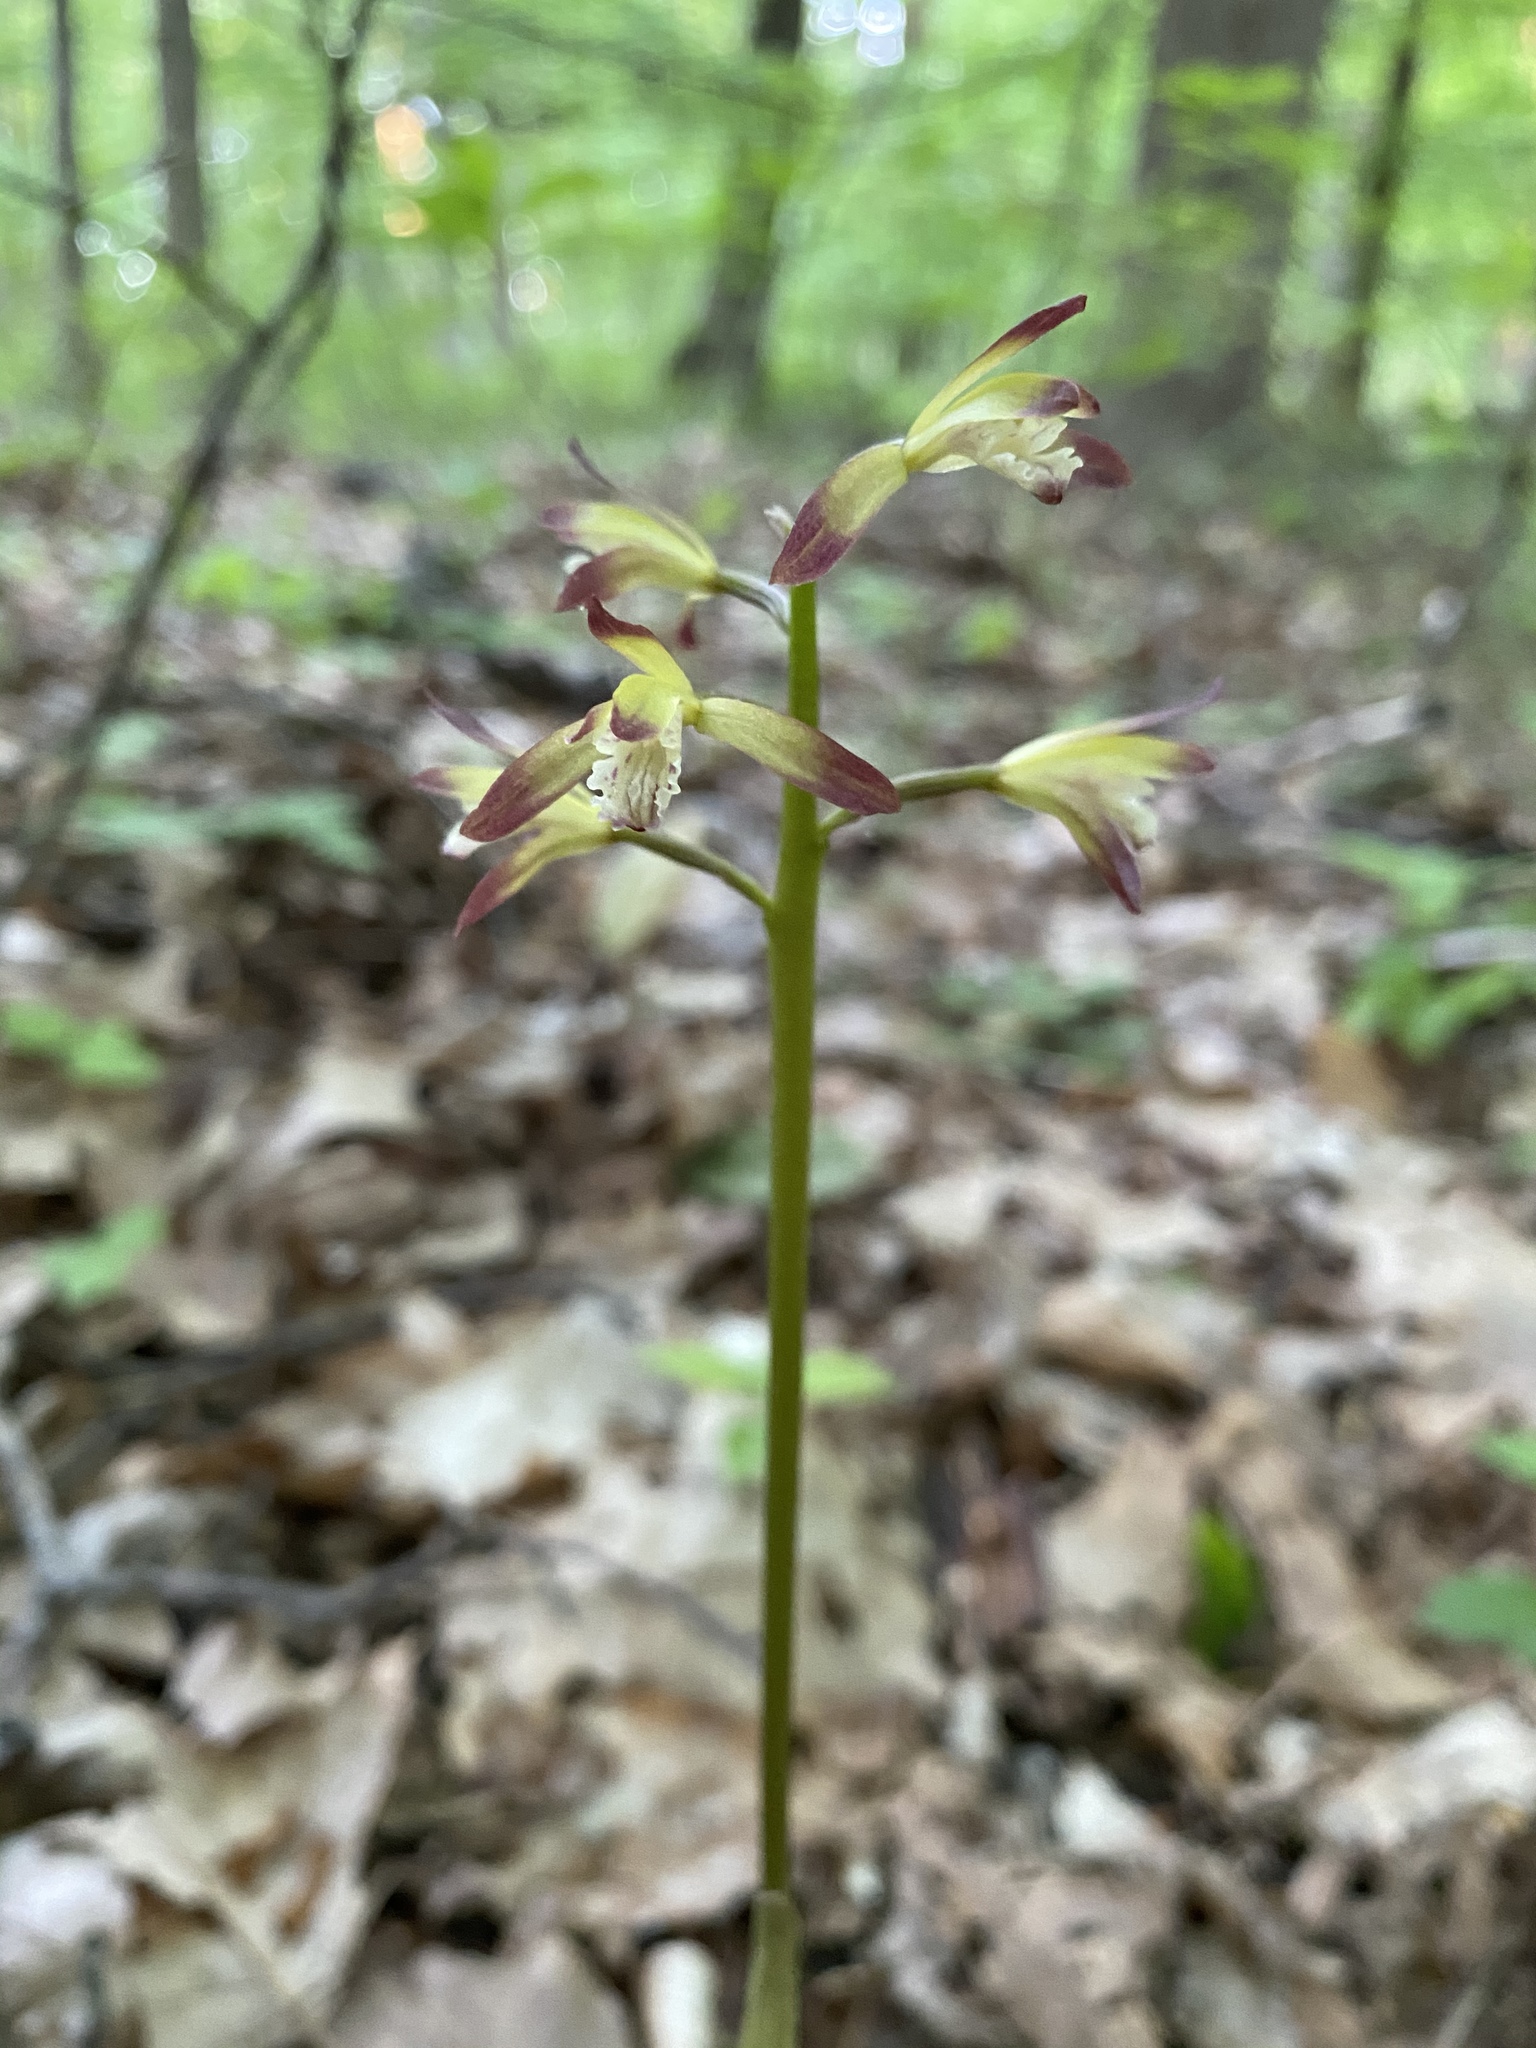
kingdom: Plantae
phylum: Tracheophyta
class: Liliopsida
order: Asparagales
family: Orchidaceae
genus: Aplectrum
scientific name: Aplectrum hyemale
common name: Adam-and-eve
